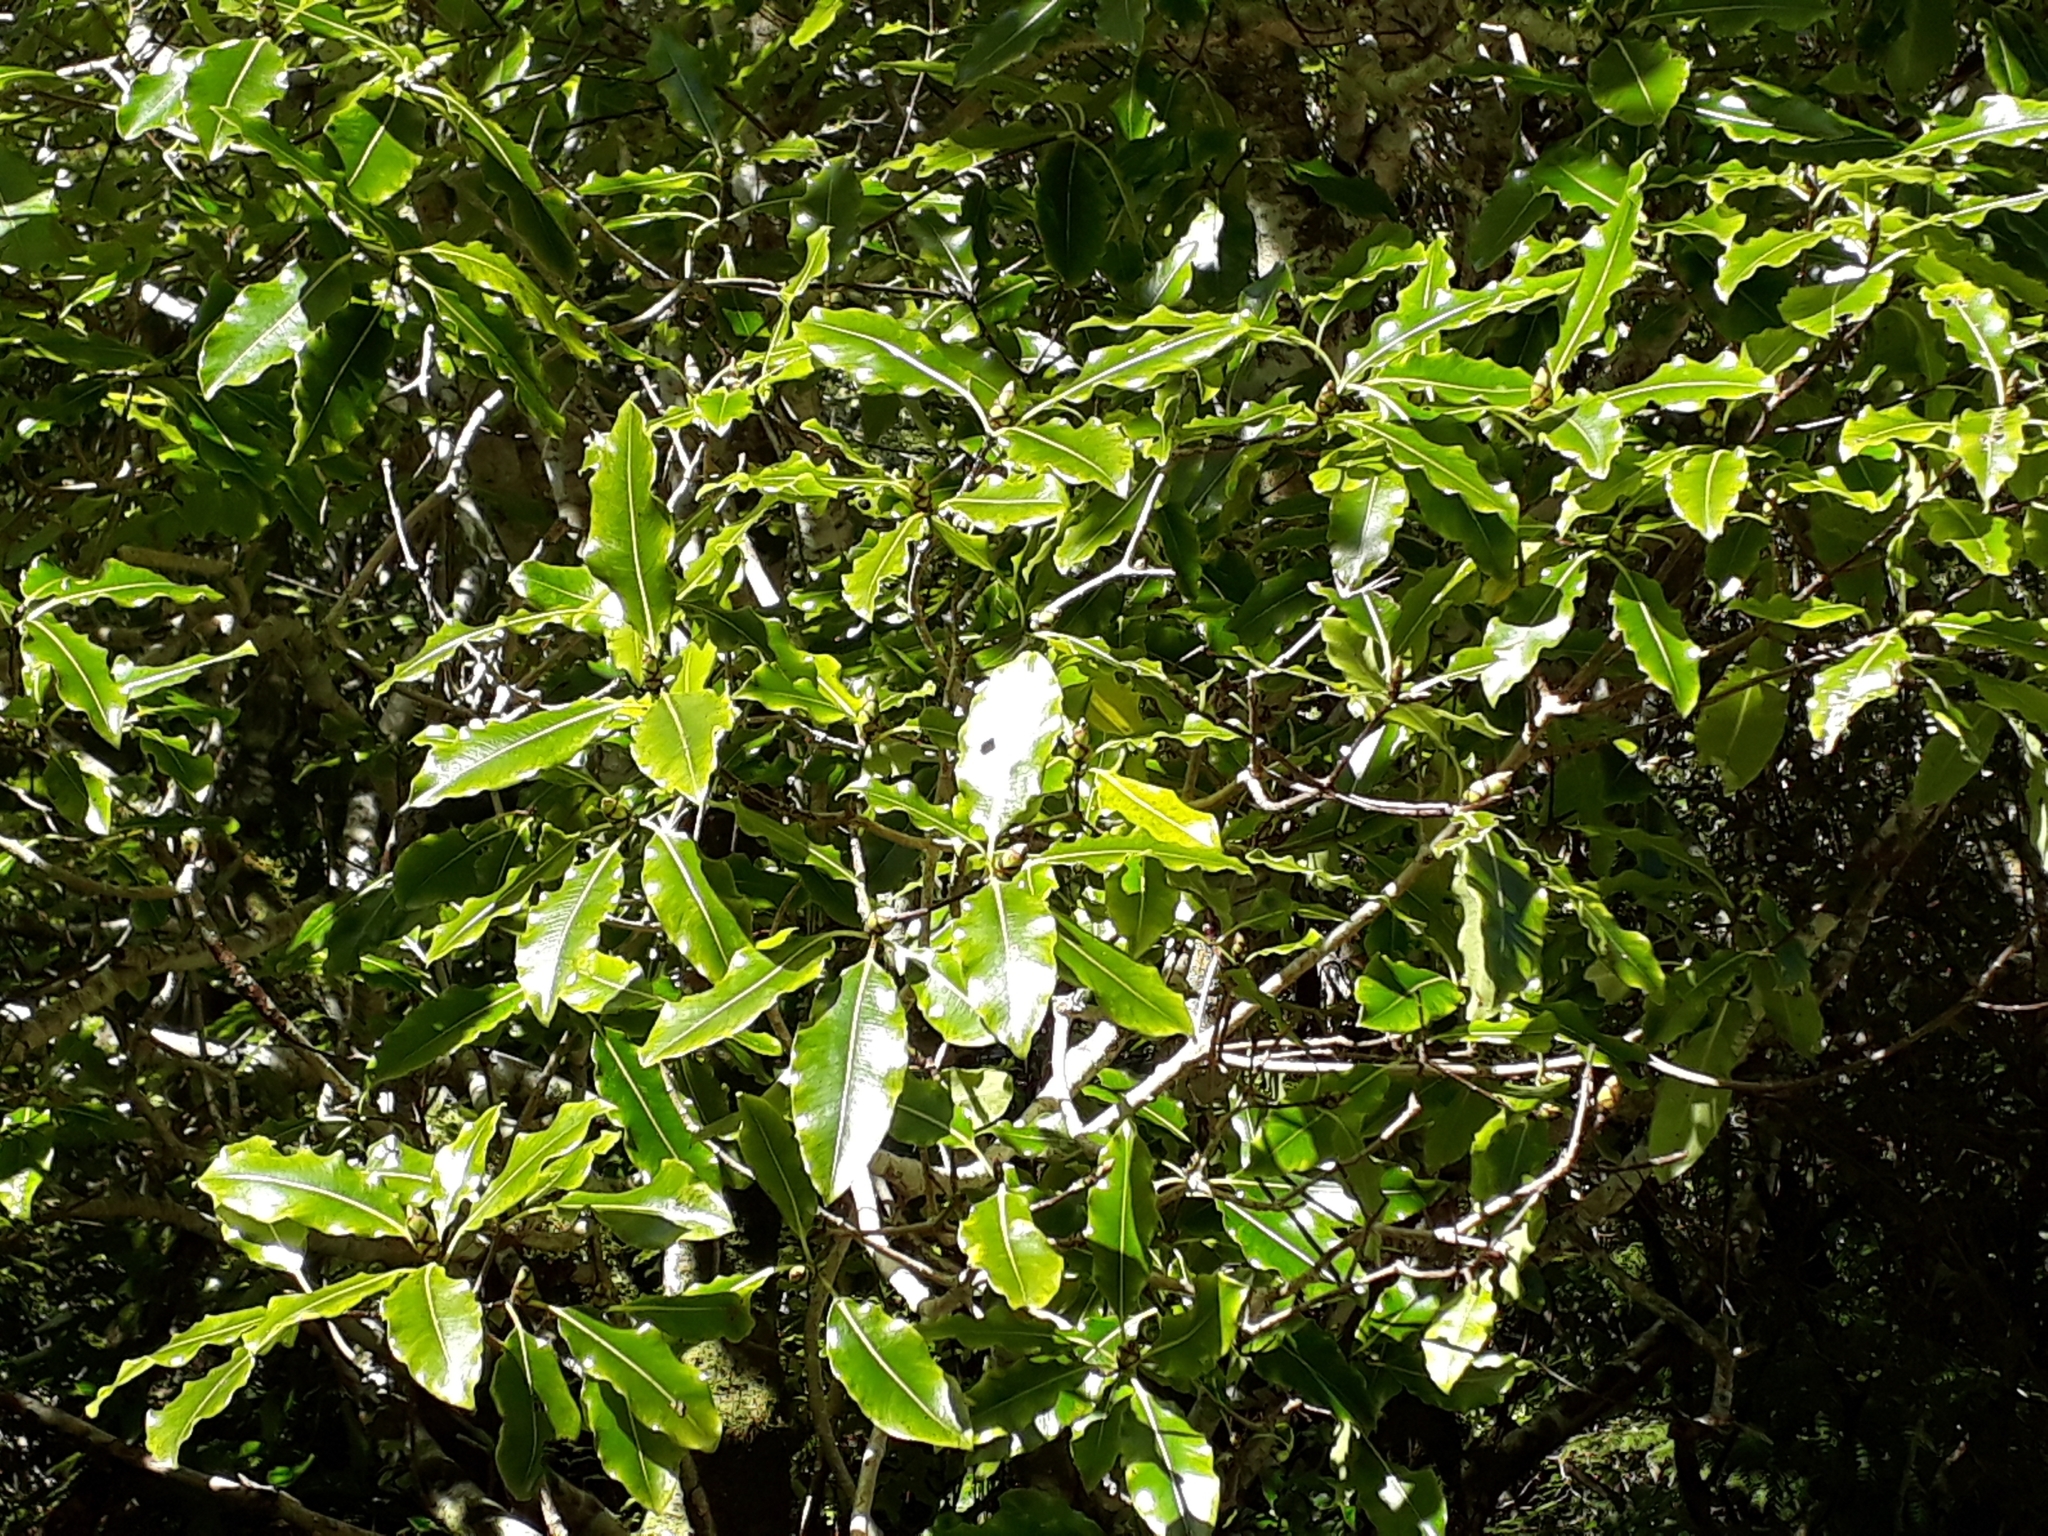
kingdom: Plantae
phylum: Tracheophyta
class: Magnoliopsida
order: Apiales
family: Pittosporaceae
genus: Pittosporum
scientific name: Pittosporum eugenioides
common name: Lemonwood
